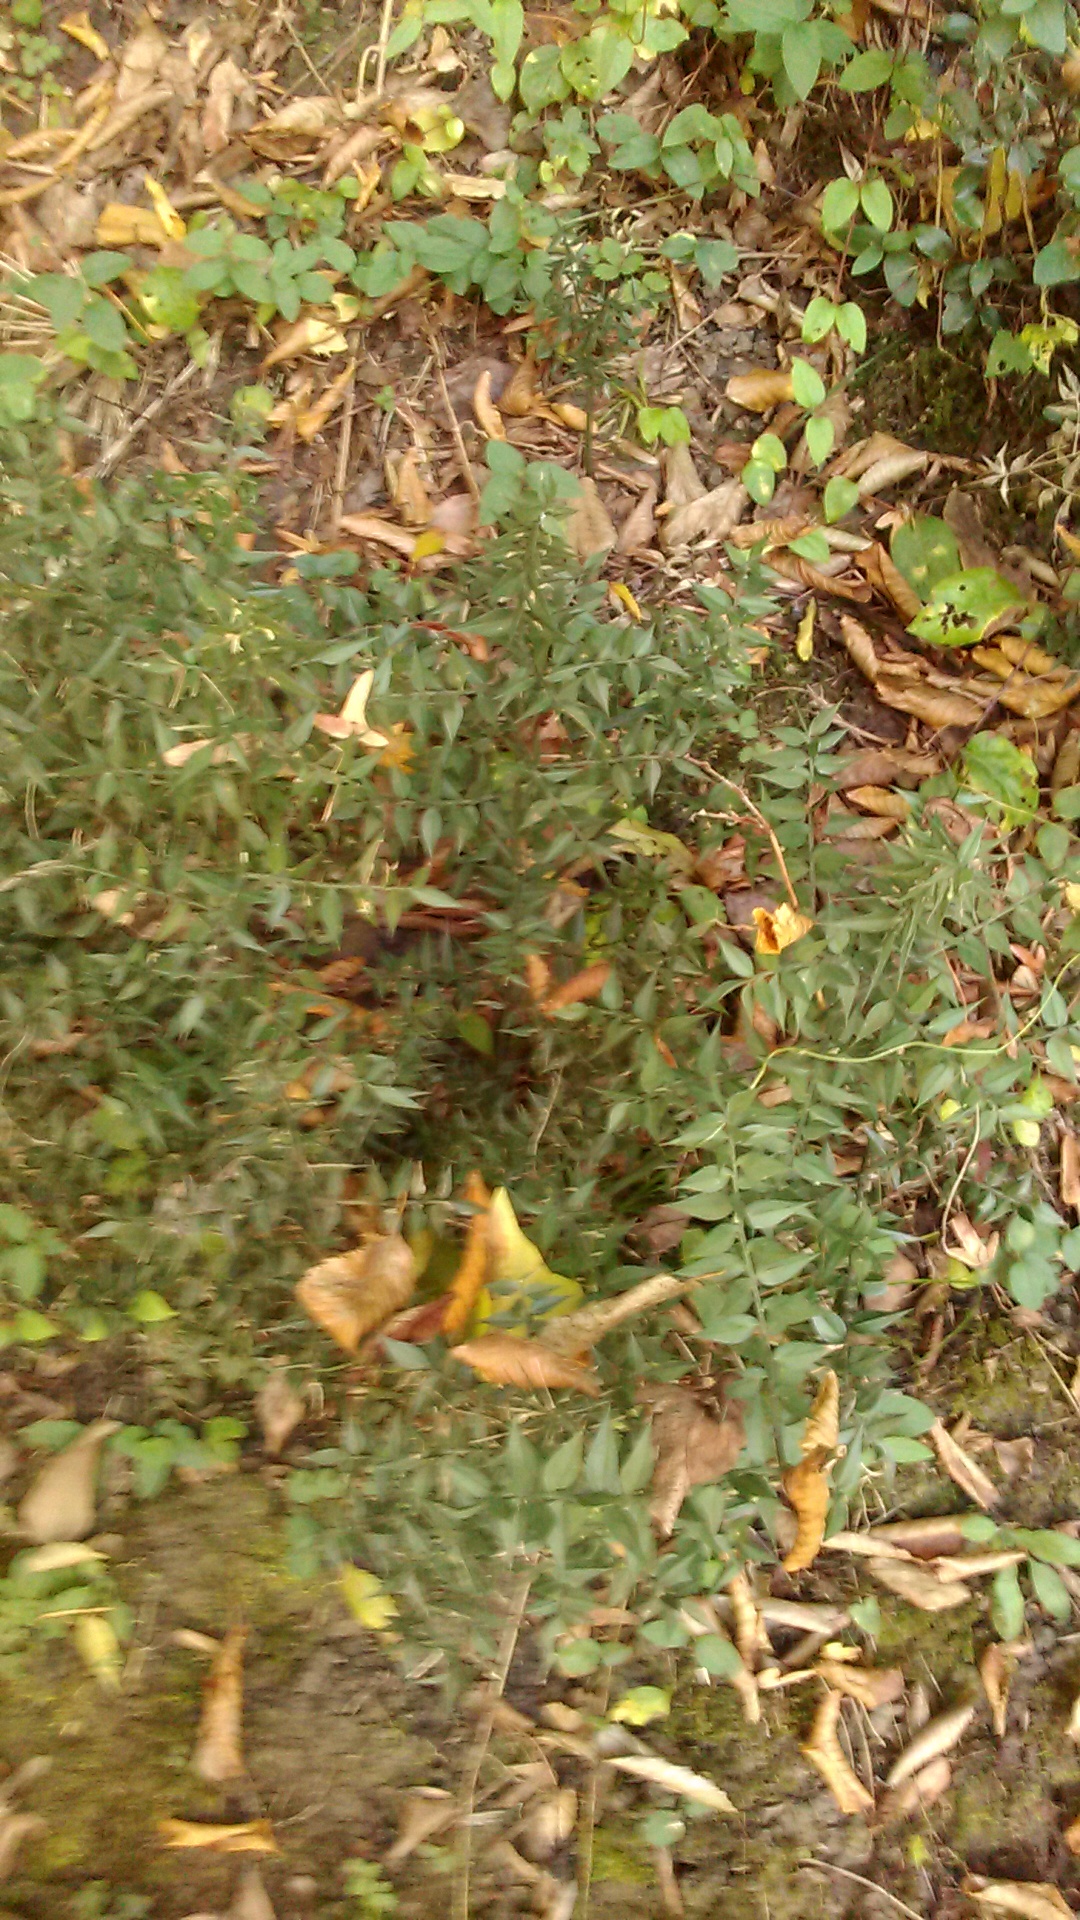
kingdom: Plantae
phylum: Tracheophyta
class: Liliopsida
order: Asparagales
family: Asparagaceae
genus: Ruscus
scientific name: Ruscus aculeatus
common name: Butcher's-broom
